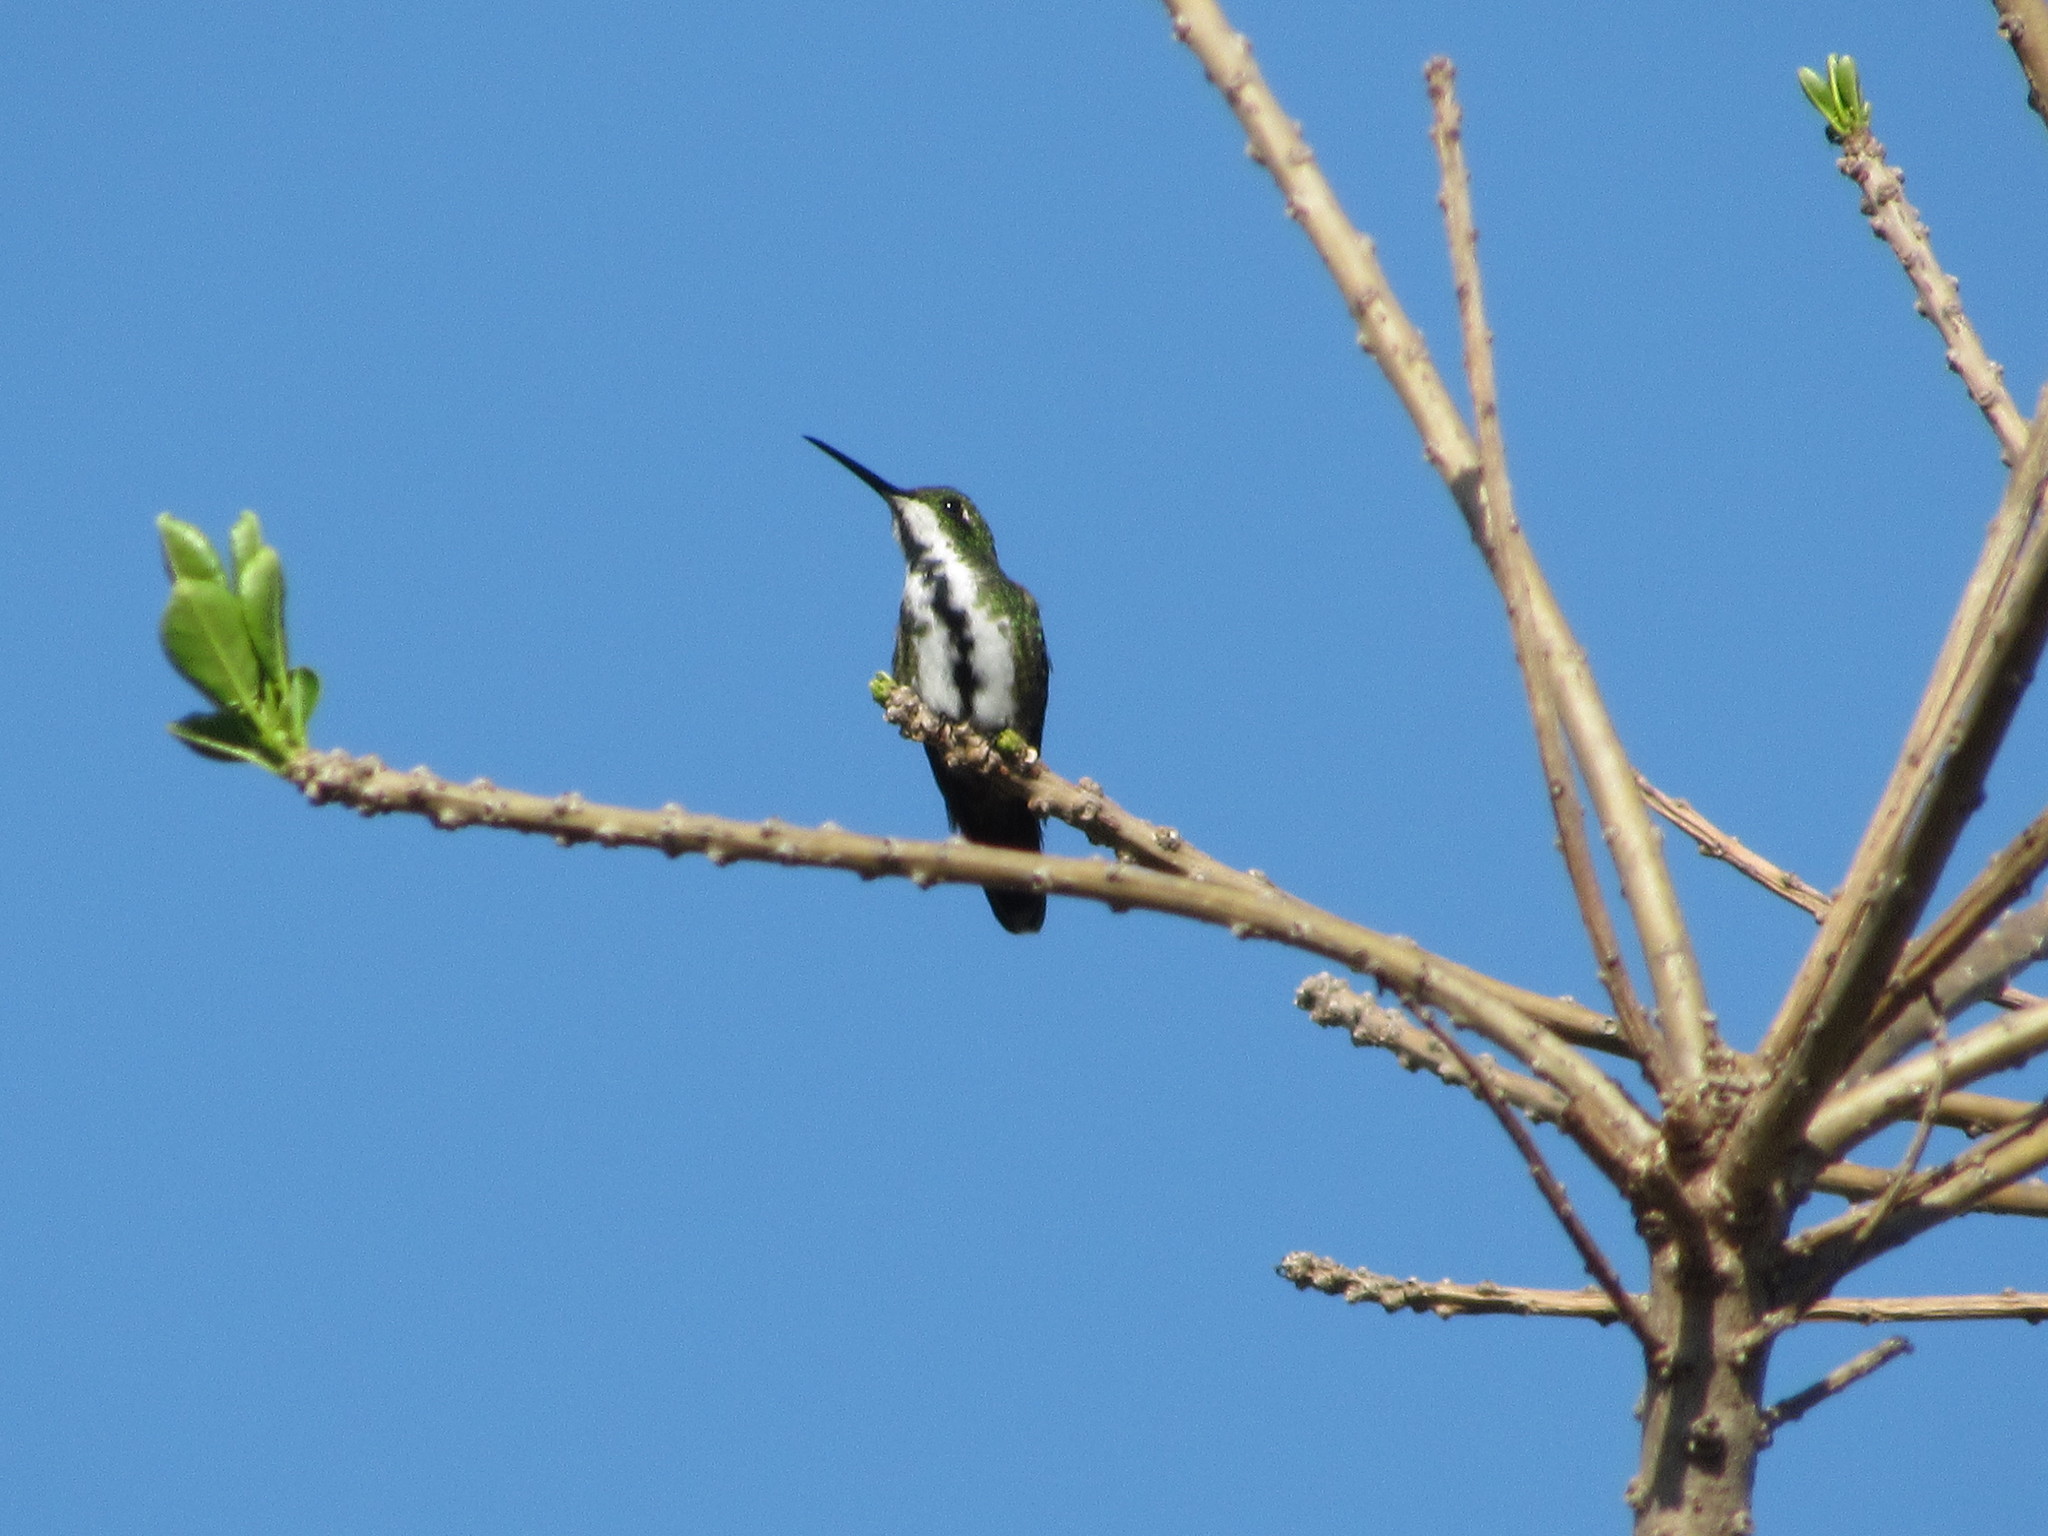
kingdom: Animalia
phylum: Chordata
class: Aves
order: Apodiformes
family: Trochilidae
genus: Anthracothorax
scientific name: Anthracothorax nigricollis
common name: Black-throated mango
